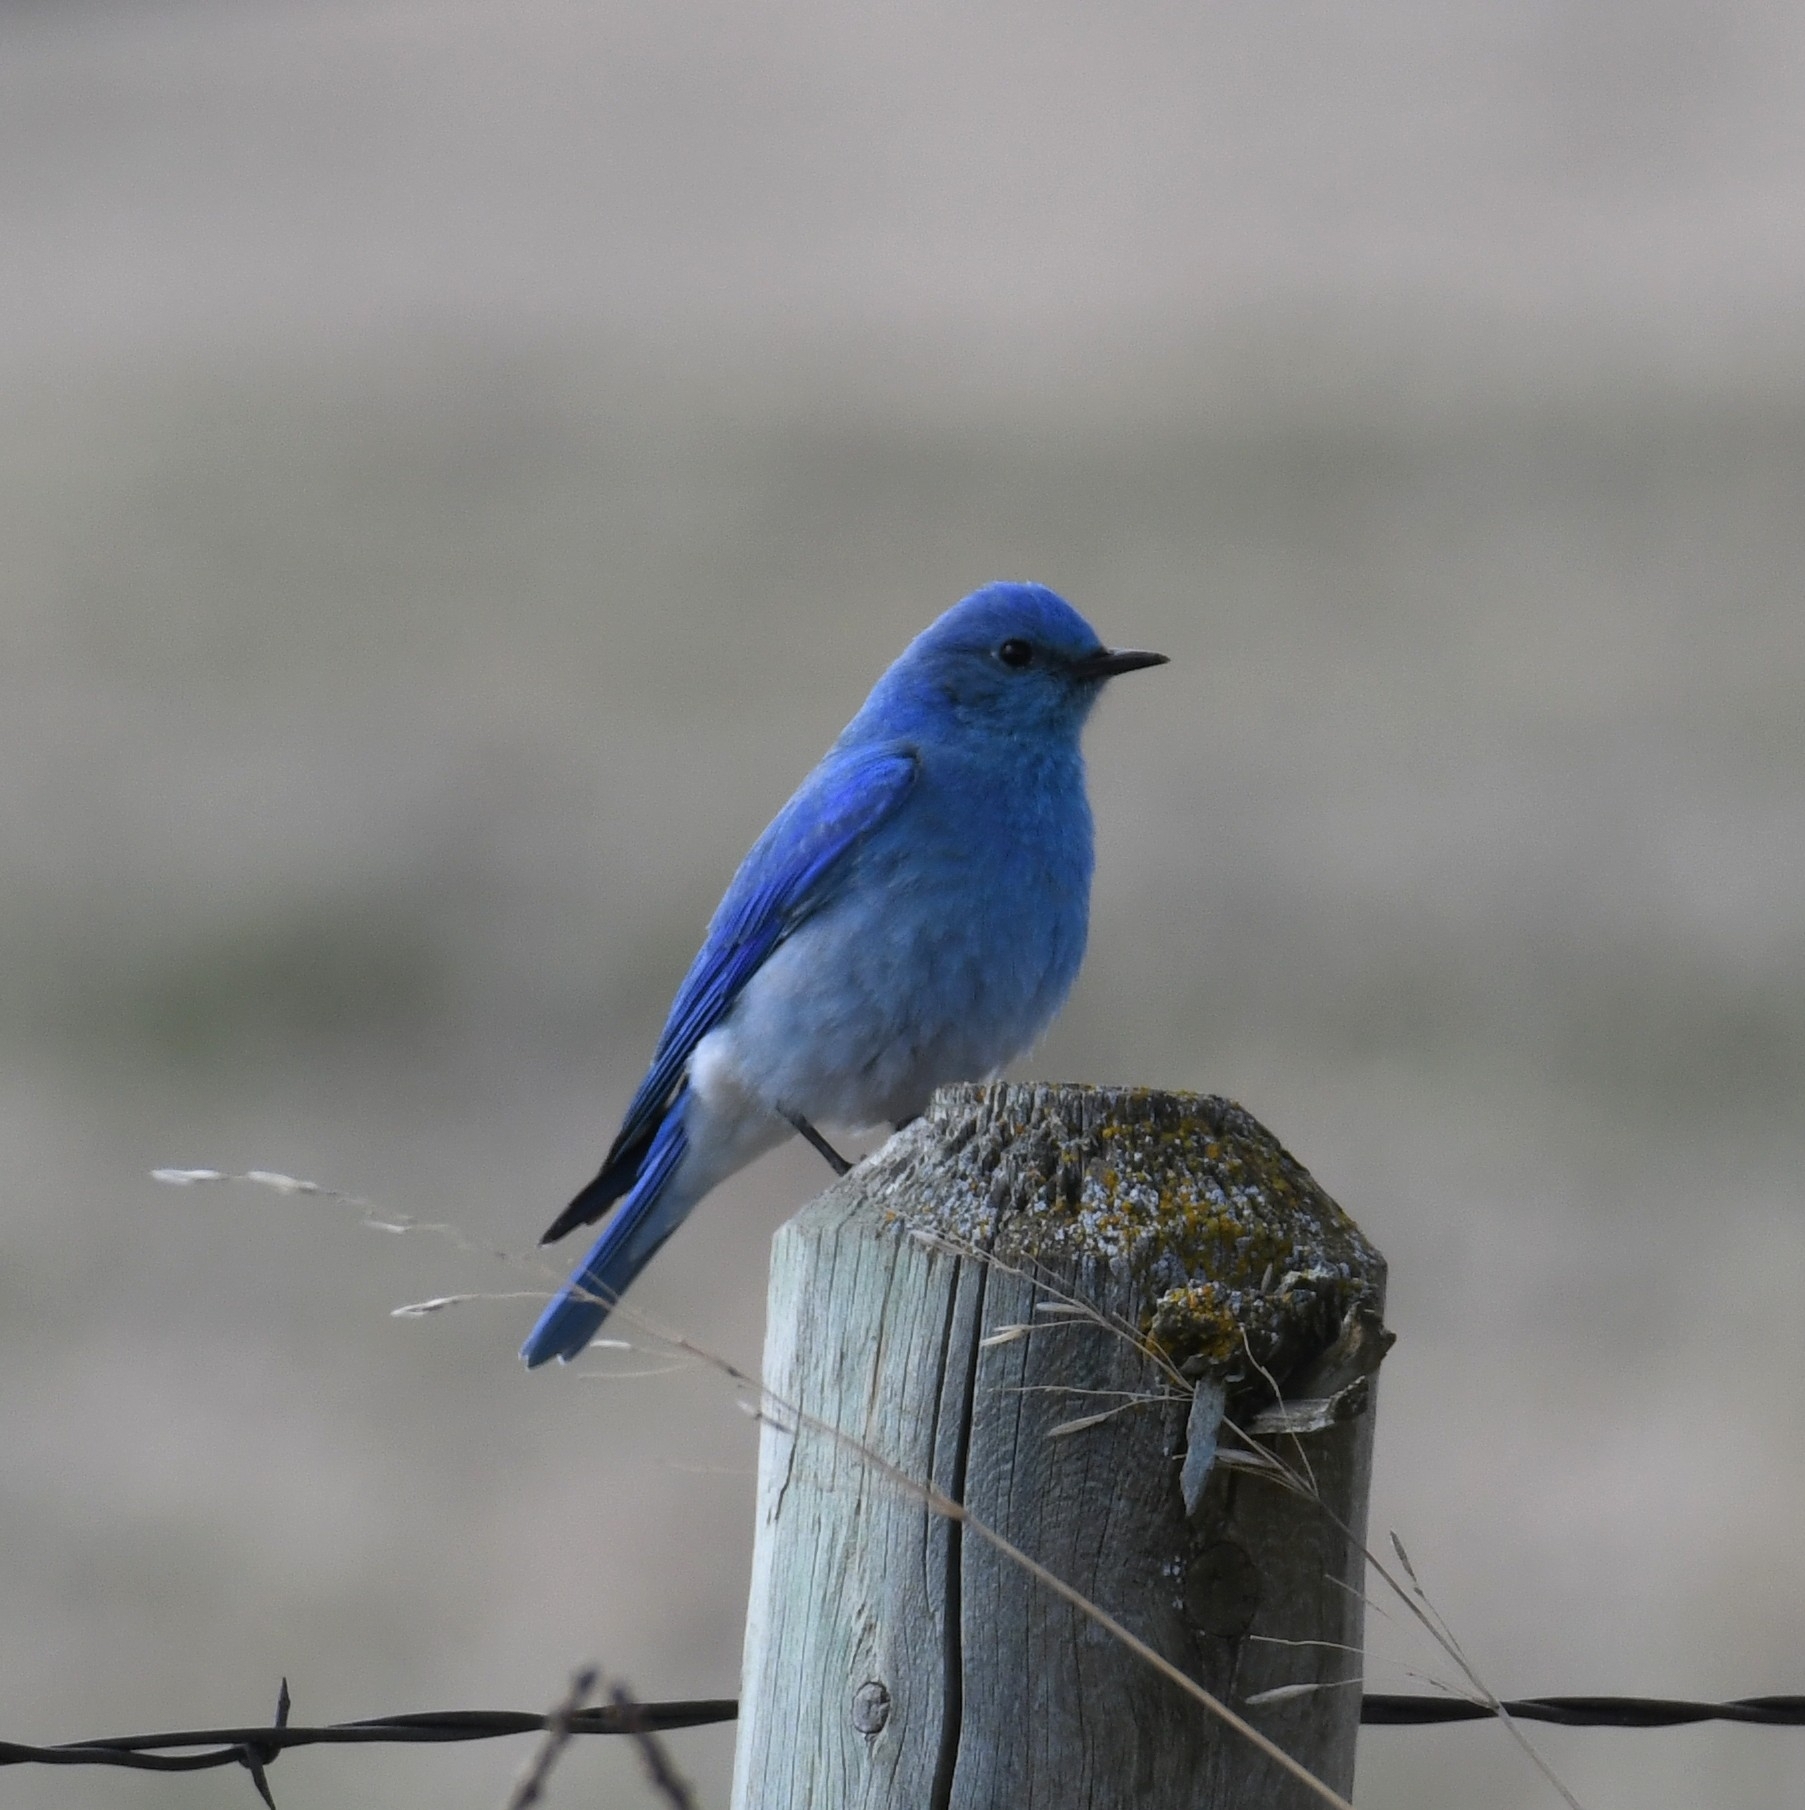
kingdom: Animalia
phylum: Chordata
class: Aves
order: Passeriformes
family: Turdidae
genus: Sialia
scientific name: Sialia currucoides
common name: Mountain bluebird
